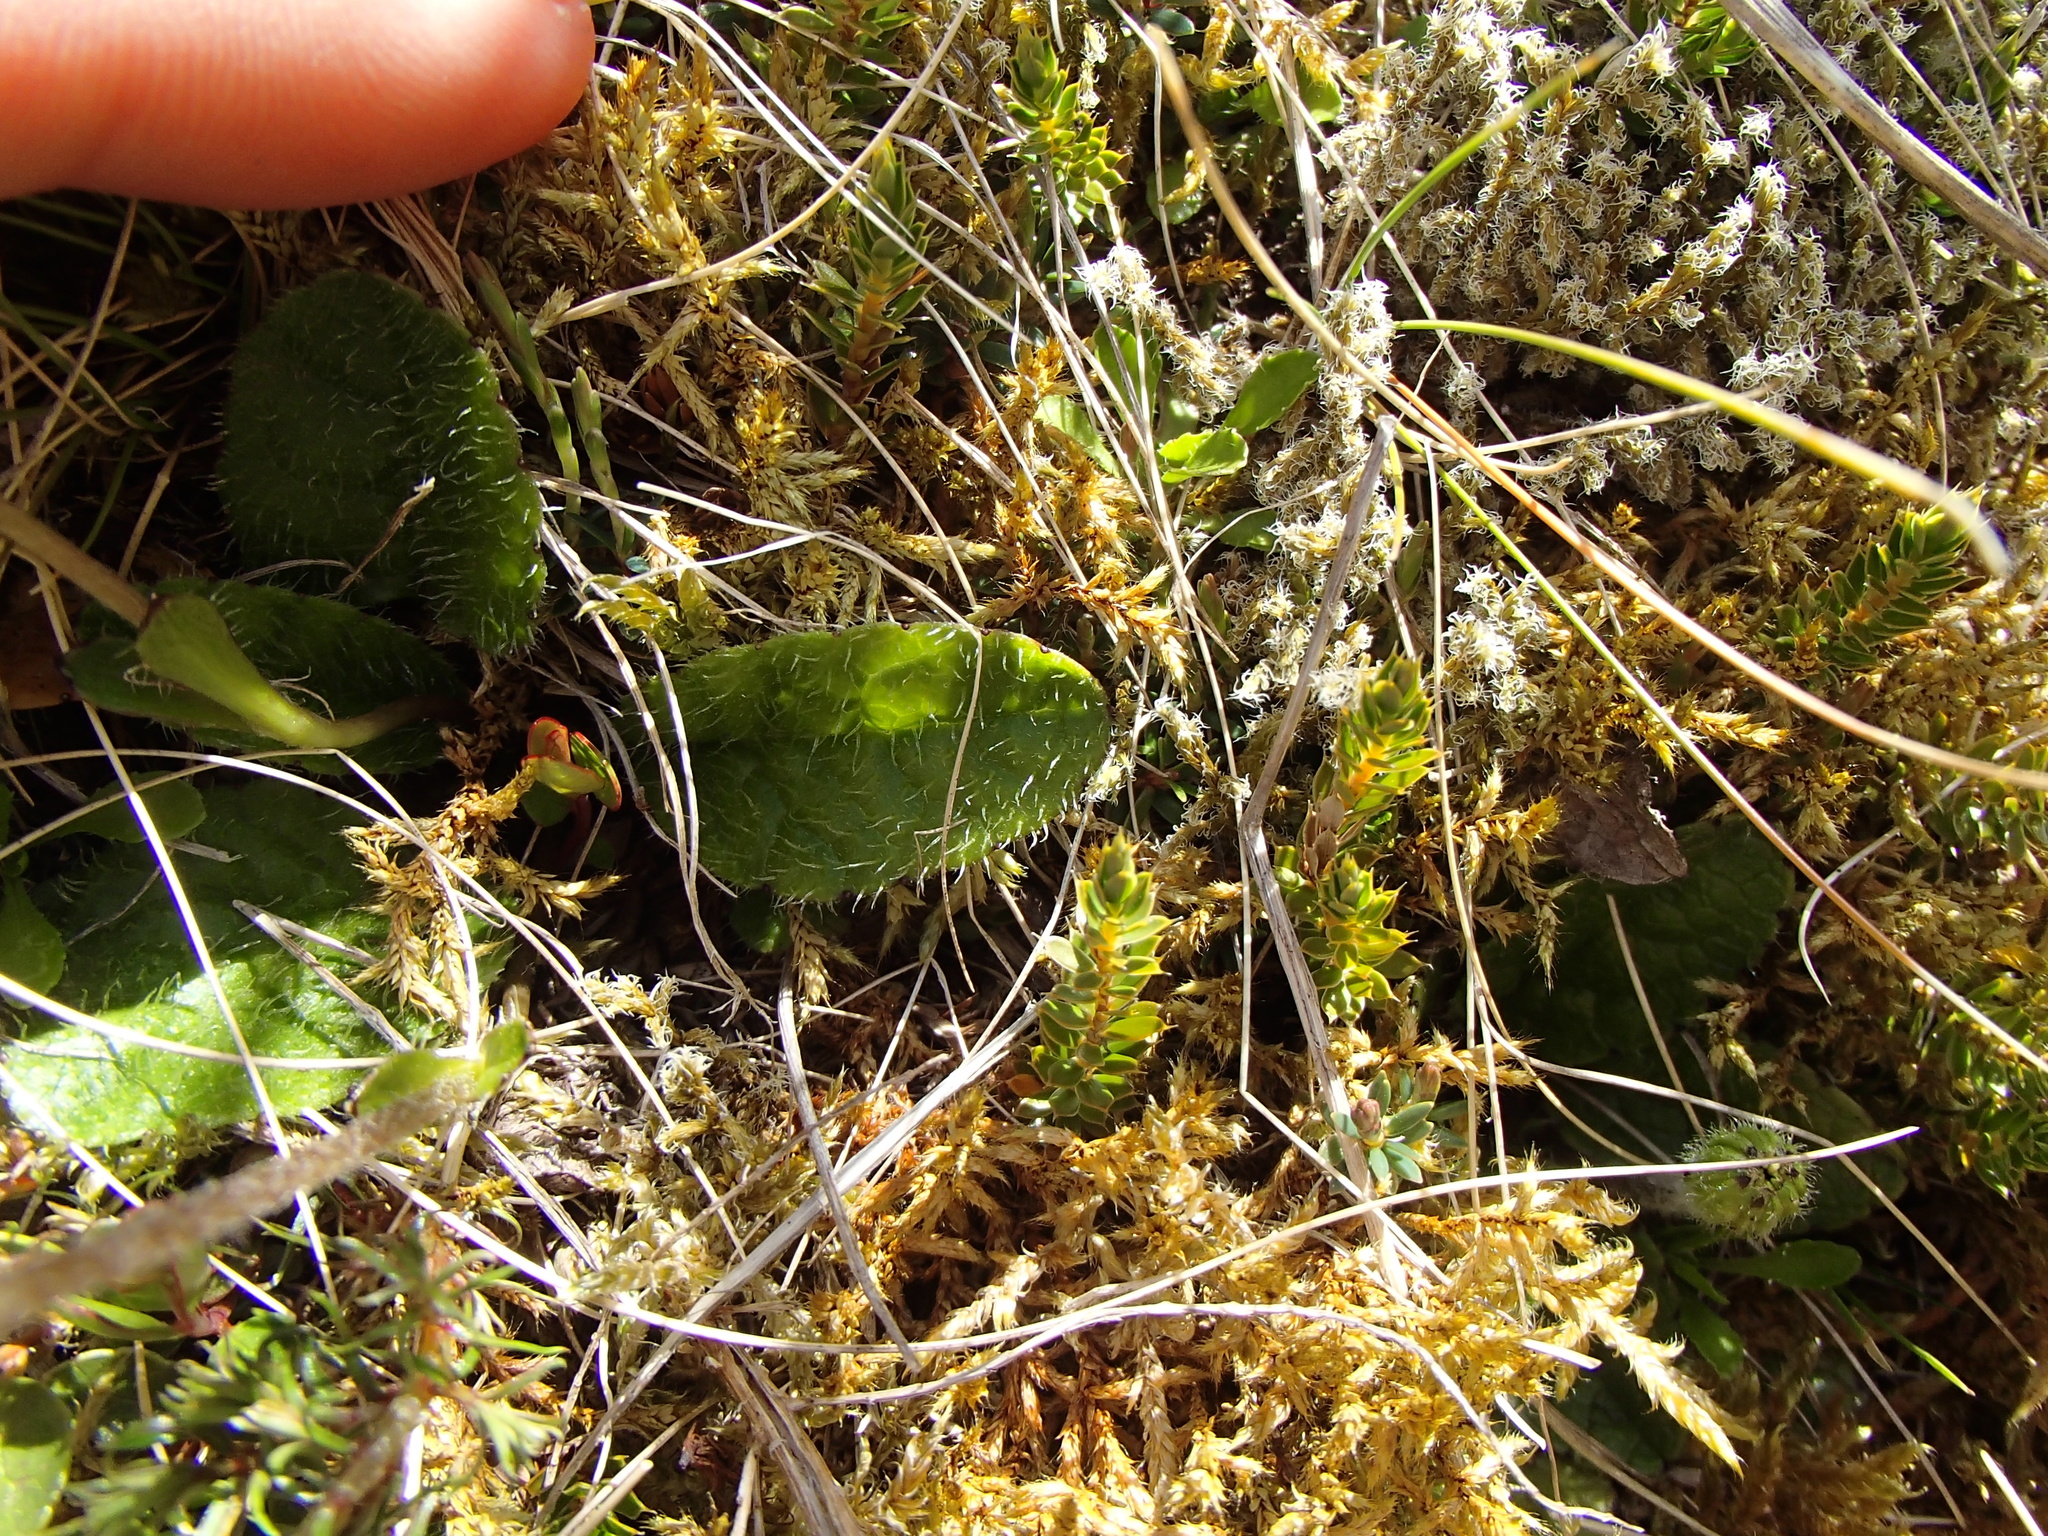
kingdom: Plantae
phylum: Tracheophyta
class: Magnoliopsida
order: Asterales
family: Asteraceae
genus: Brachyglottis
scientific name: Brachyglottis bellidioides
